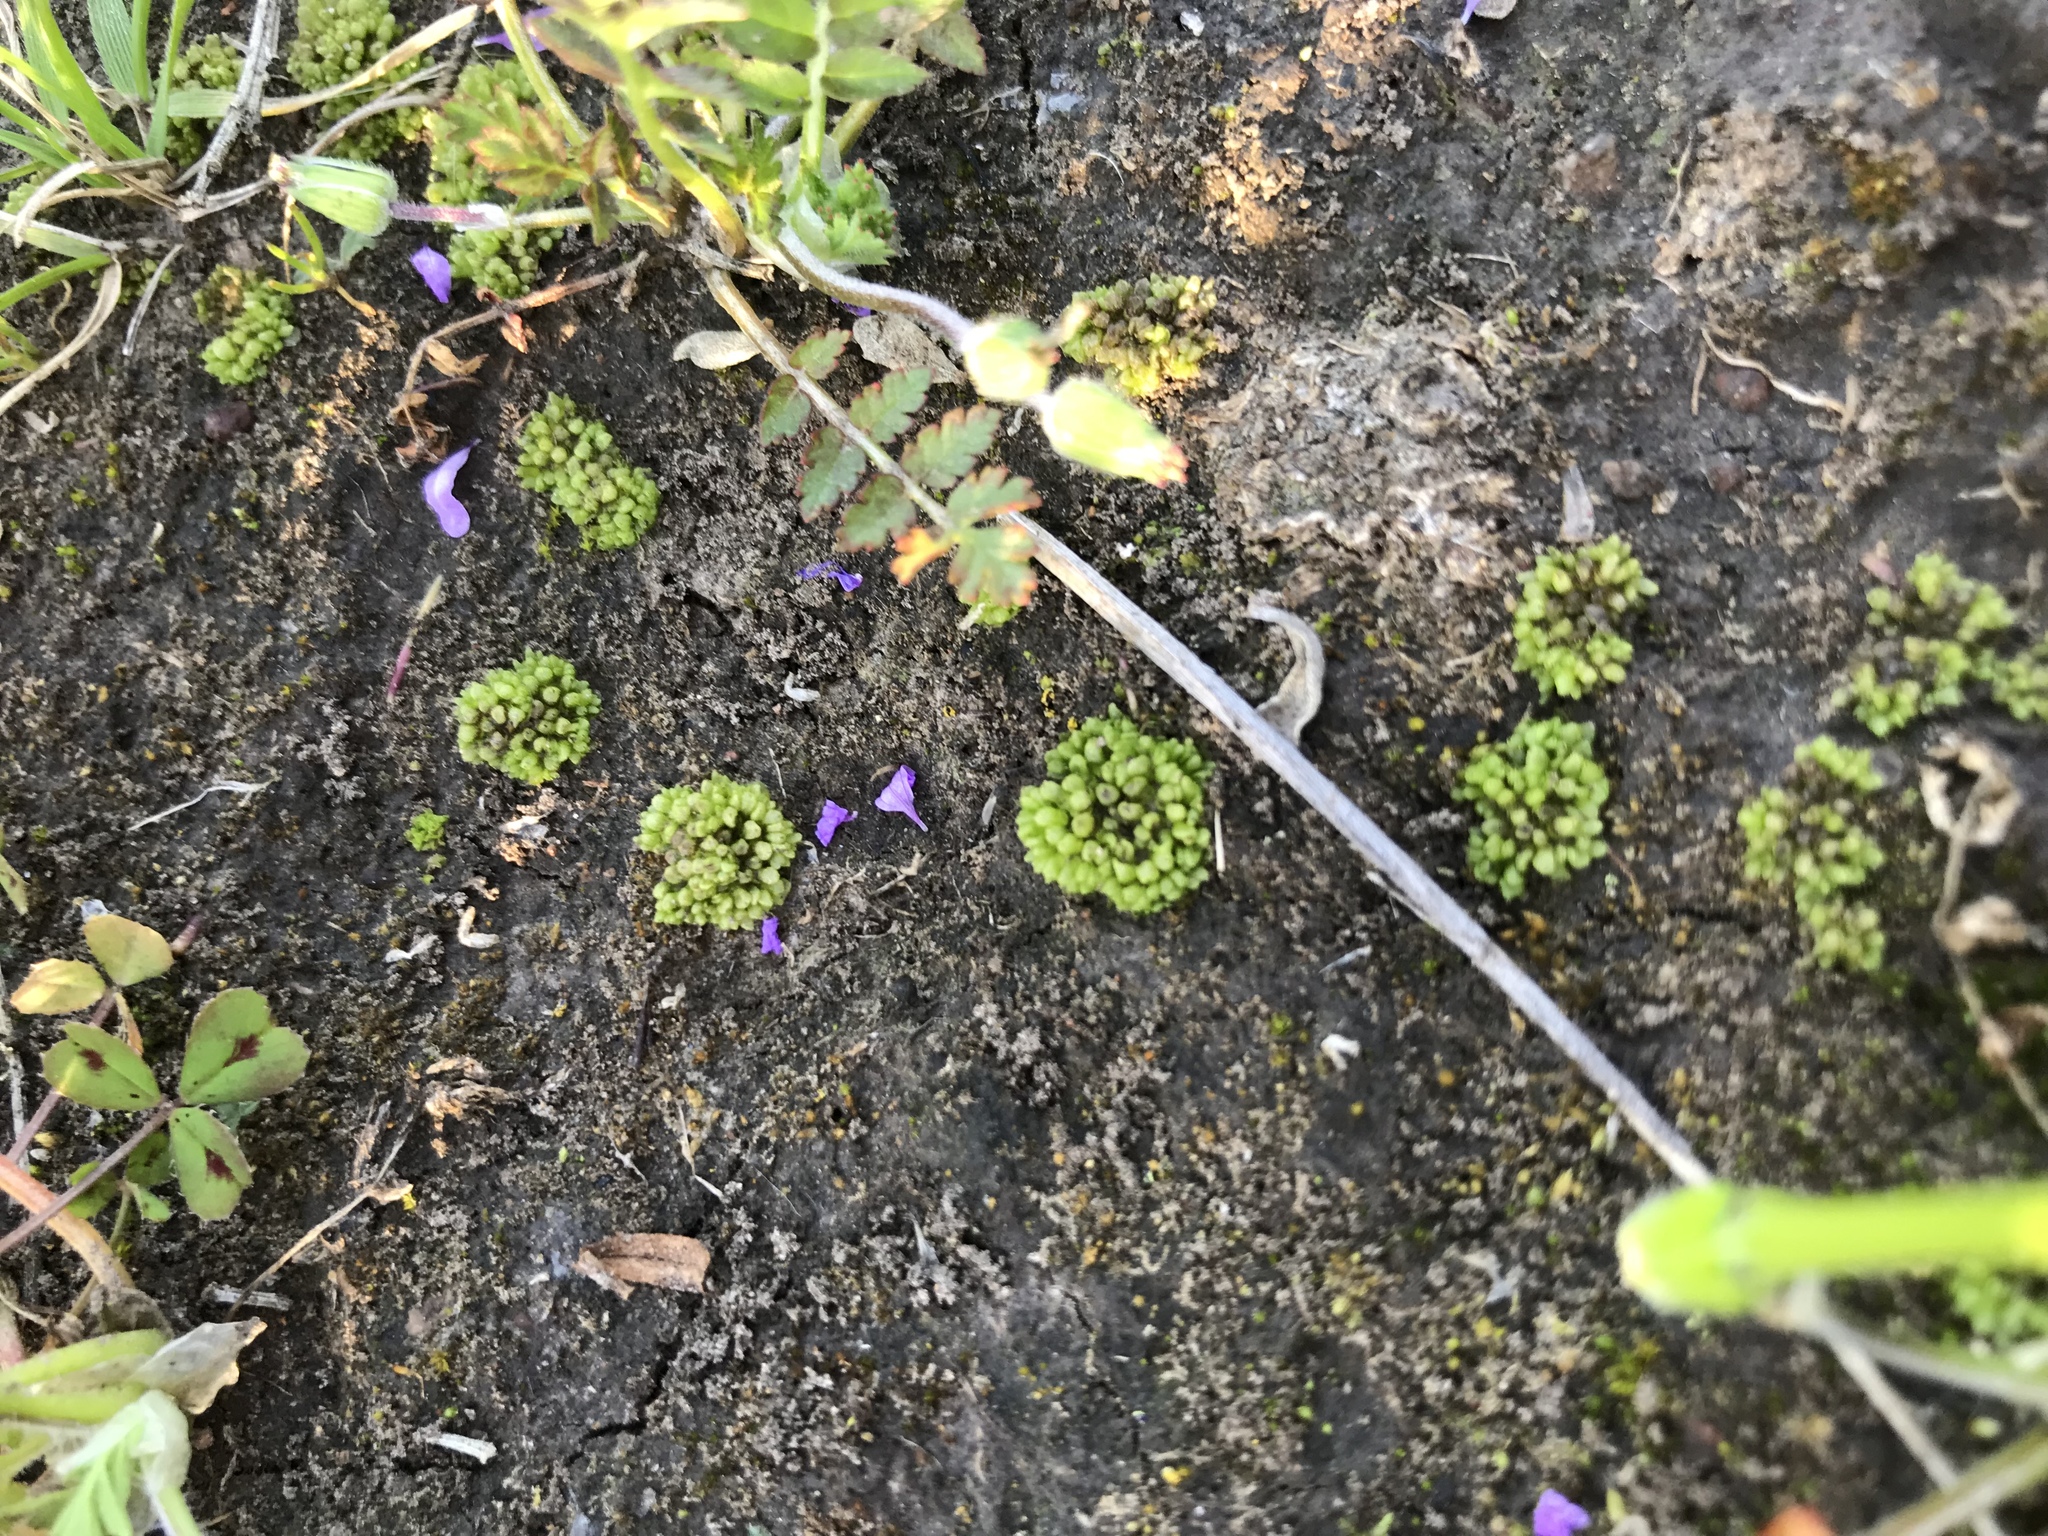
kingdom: Plantae
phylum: Marchantiophyta
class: Marchantiopsida
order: Sphaerocarpales
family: Sphaerocarpaceae
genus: Sphaerocarpos
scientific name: Sphaerocarpos
